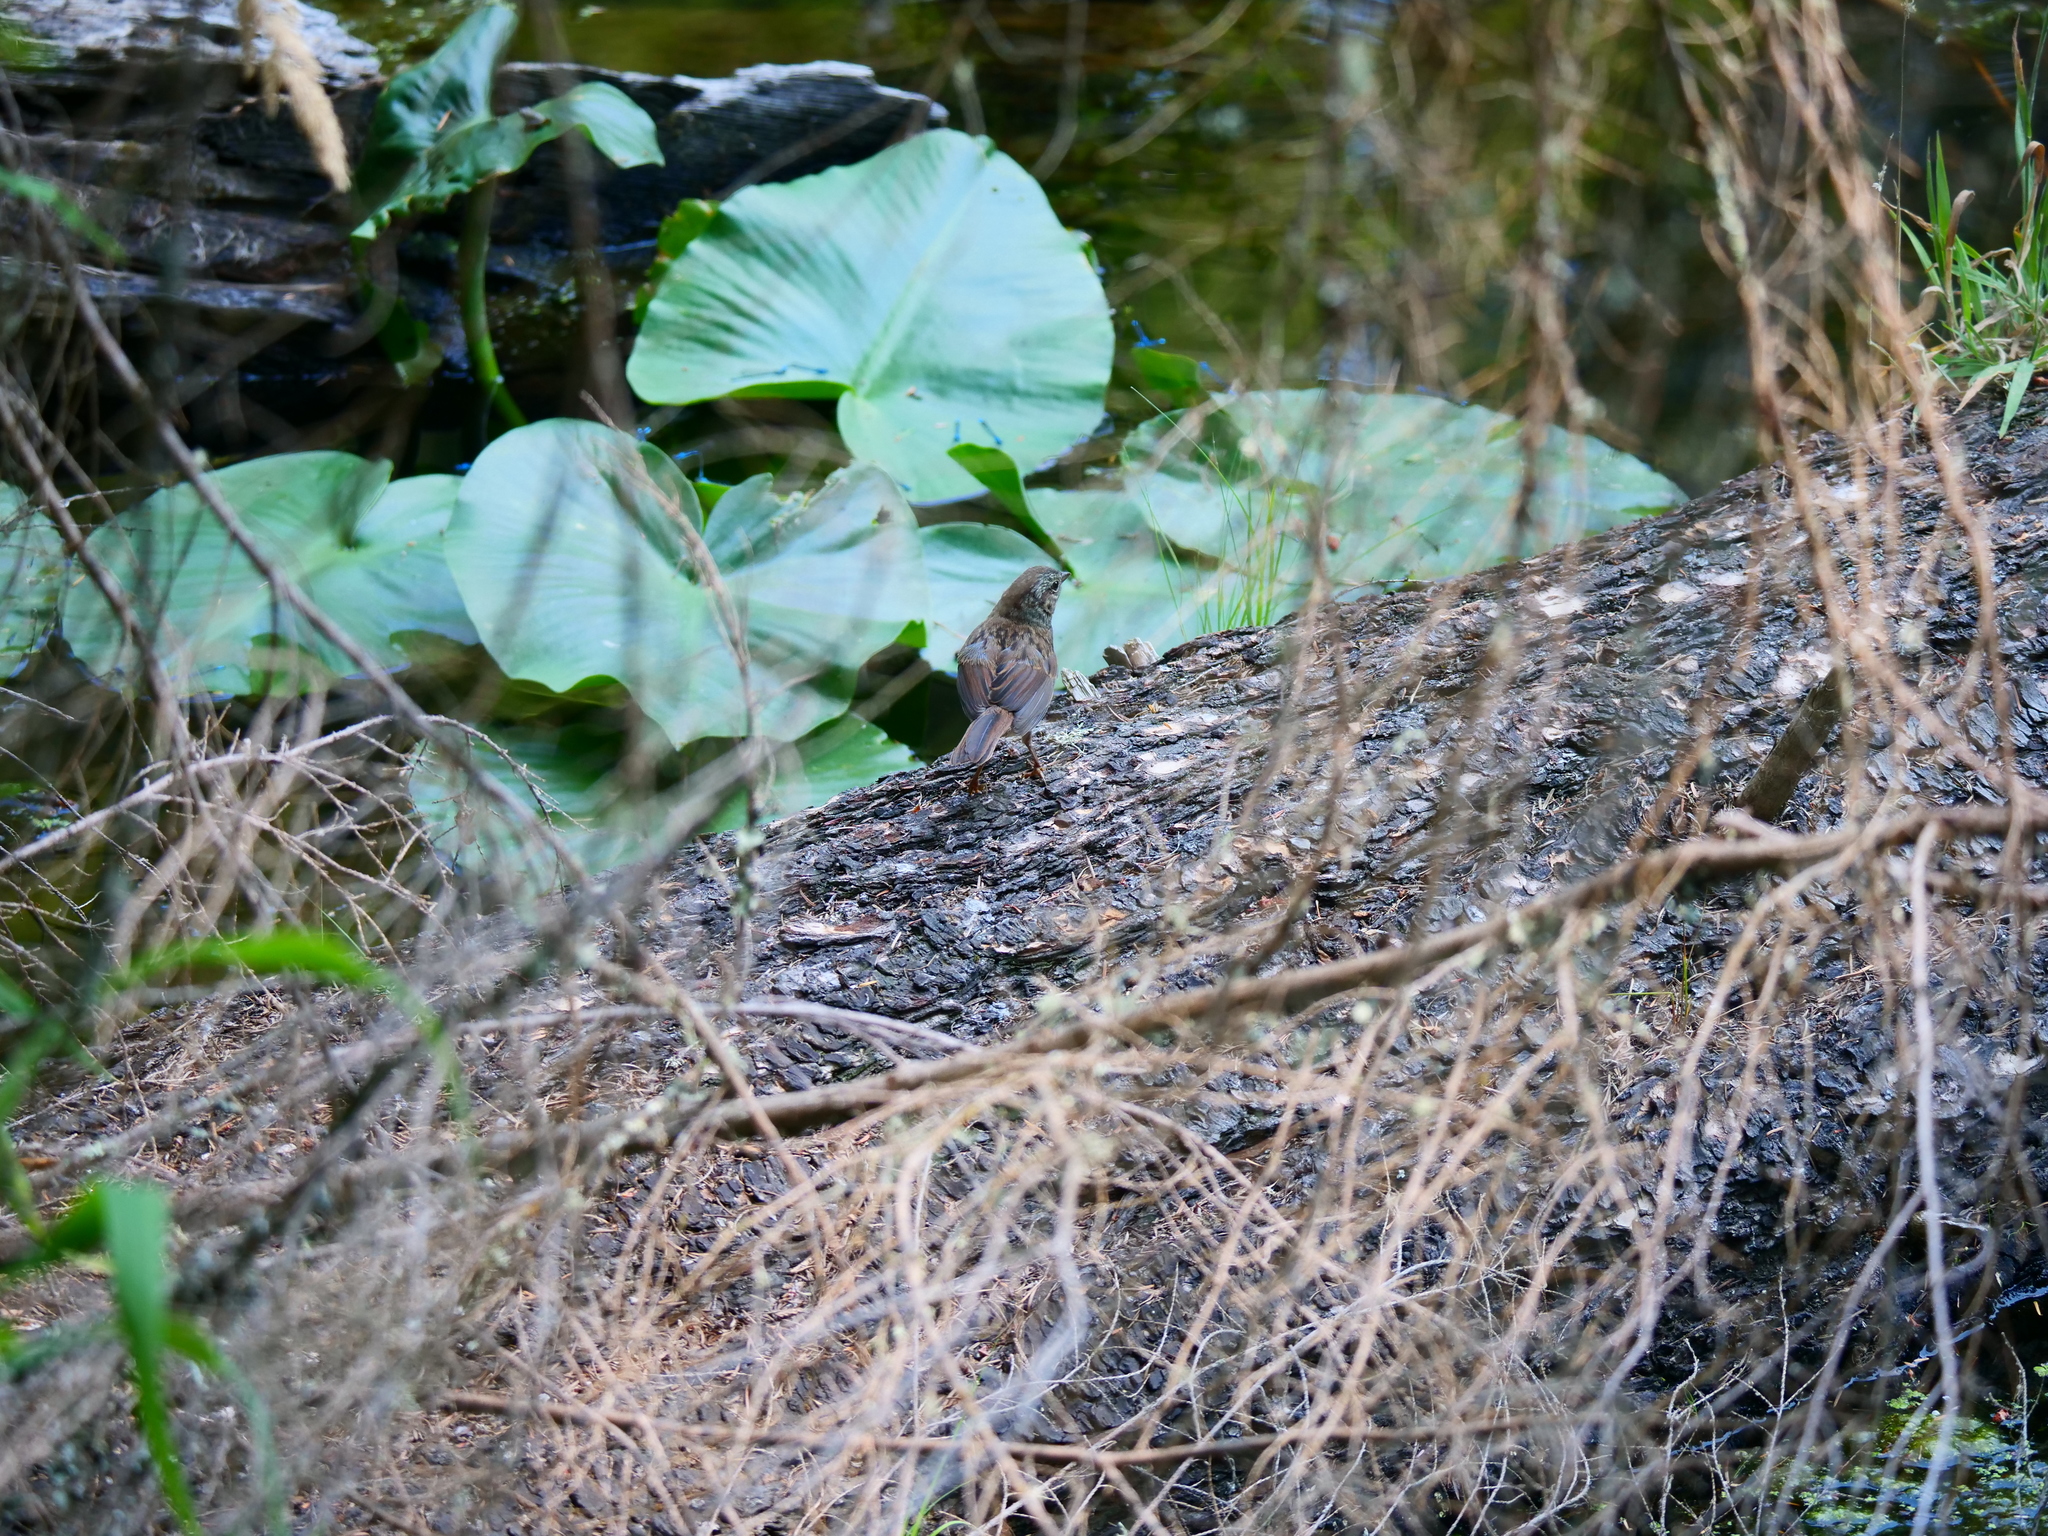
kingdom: Animalia
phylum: Chordata
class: Aves
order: Passeriformes
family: Passerellidae
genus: Melospiza
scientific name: Melospiza melodia
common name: Song sparrow
